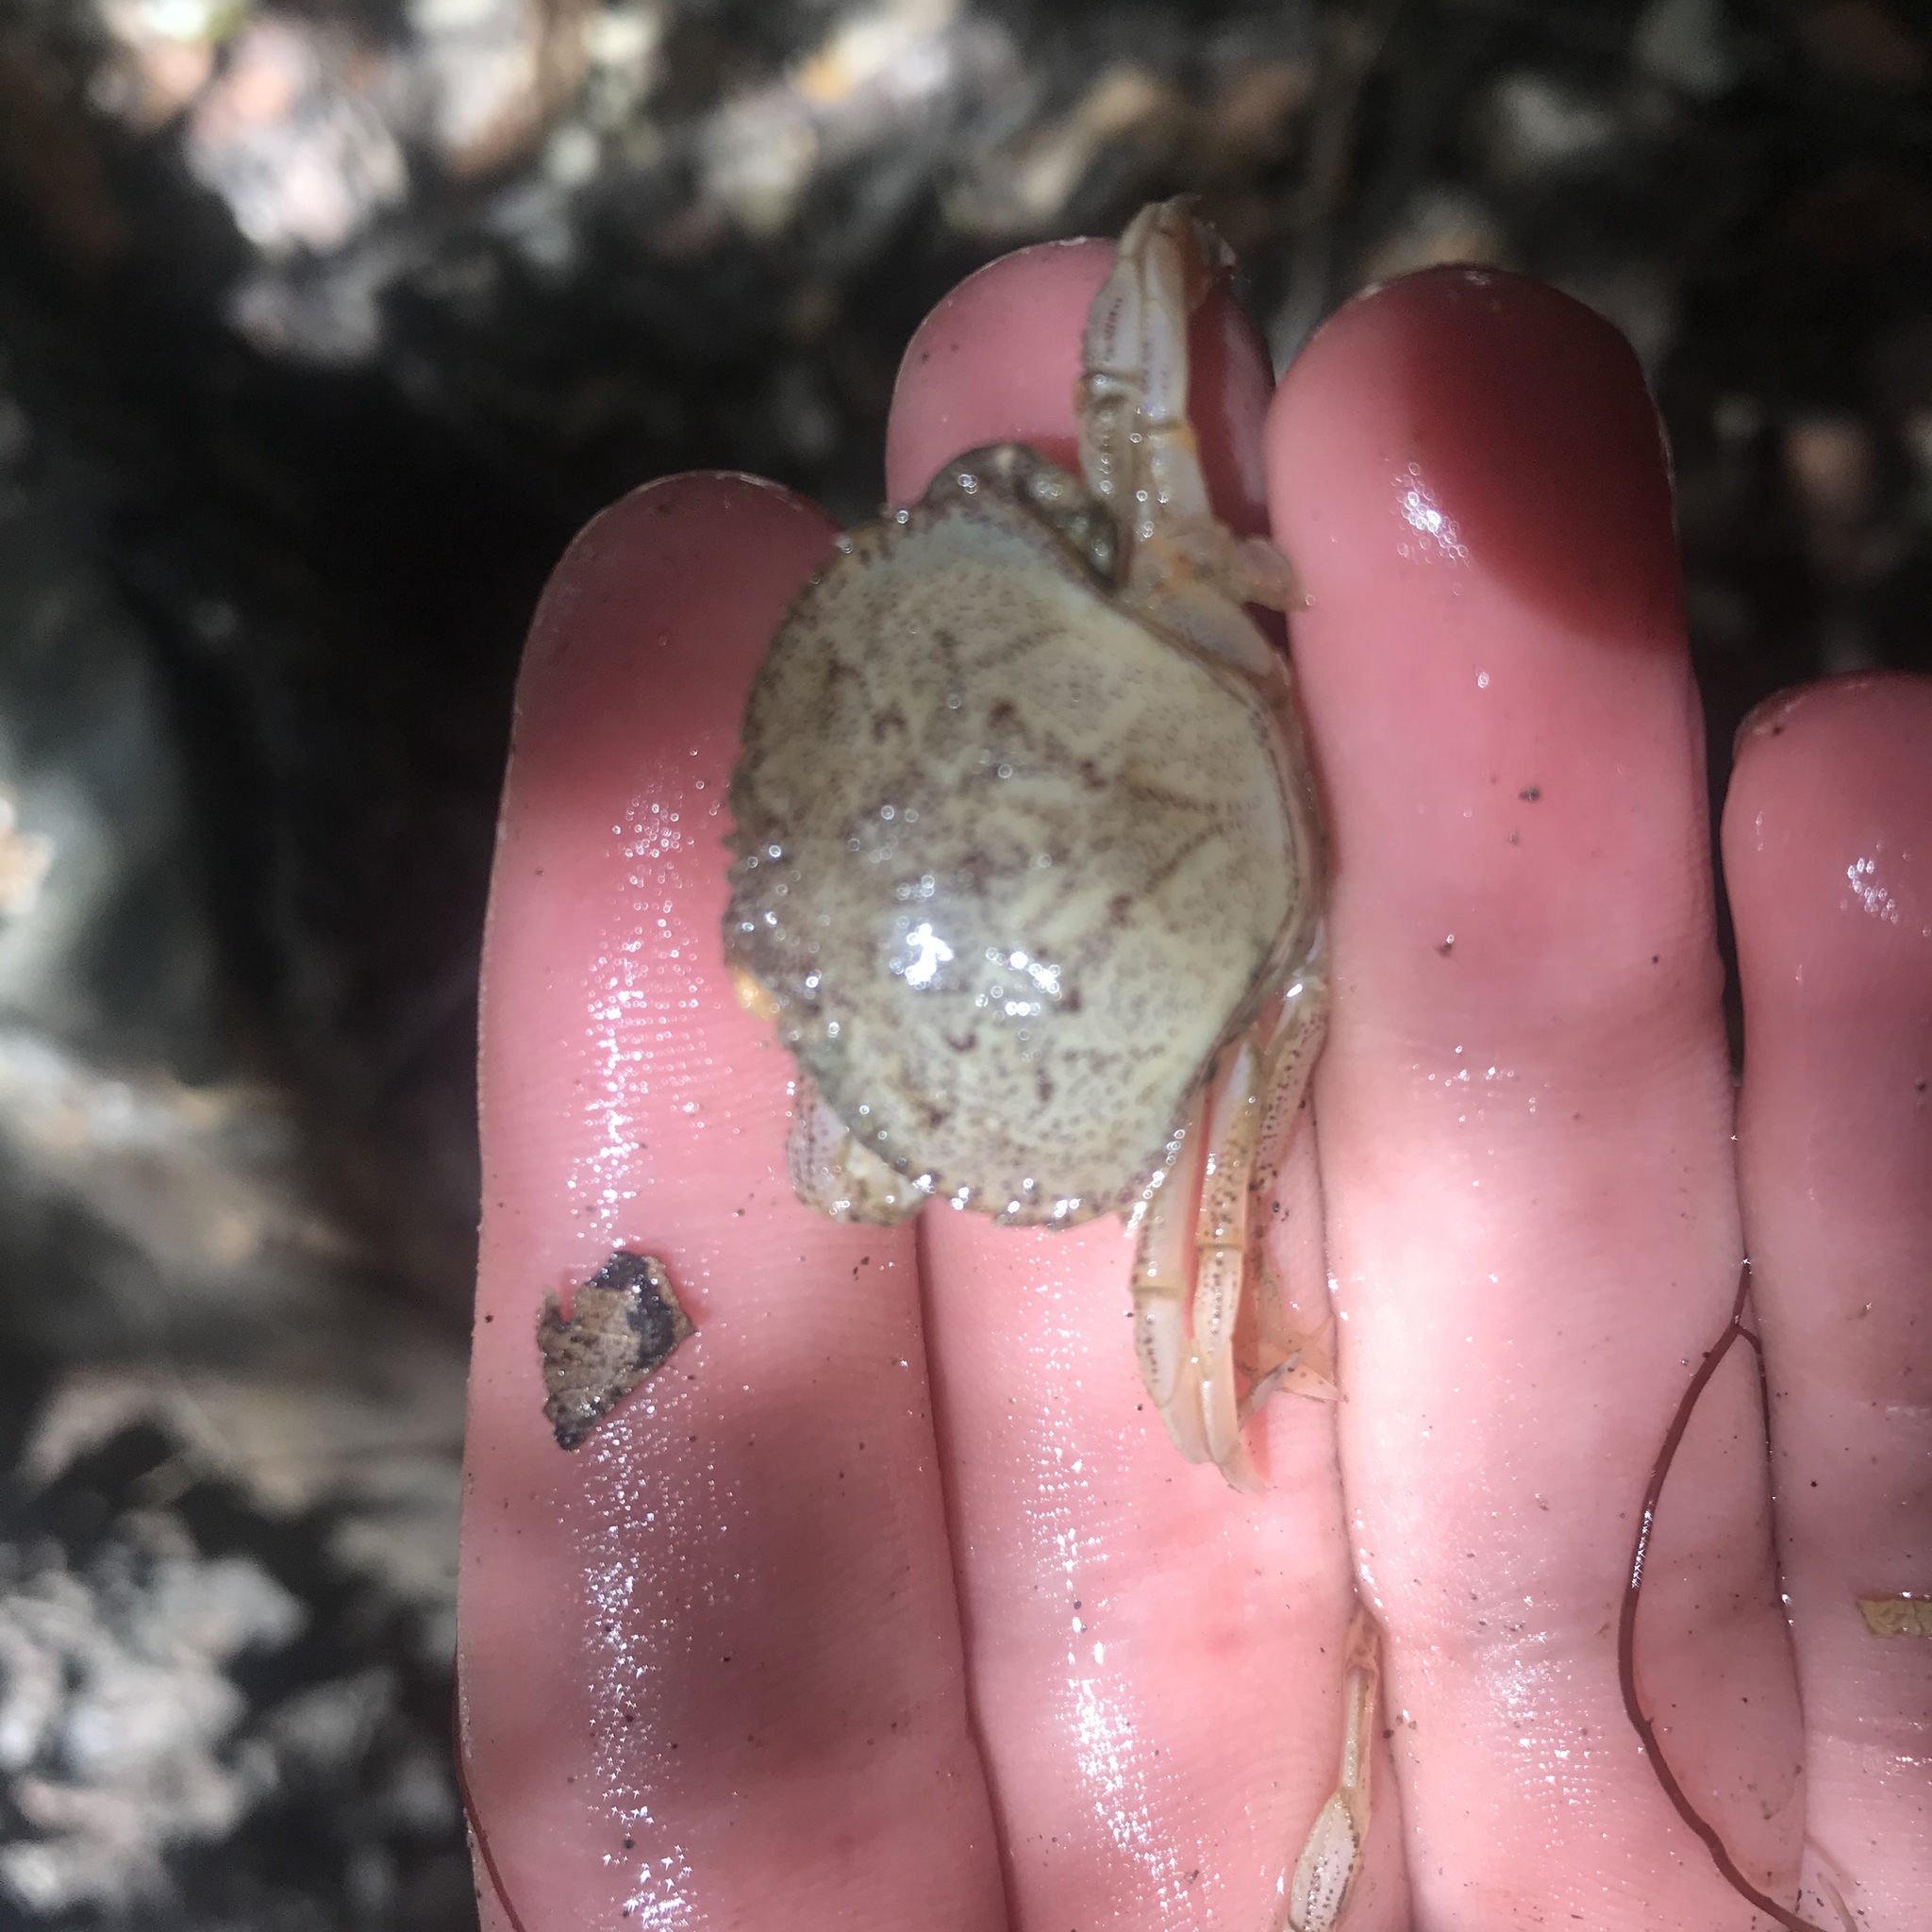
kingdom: Animalia
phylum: Arthropoda
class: Malacostraca
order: Decapoda
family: Cancridae
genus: Metacarcinus
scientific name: Metacarcinus magister
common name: Californian crab
